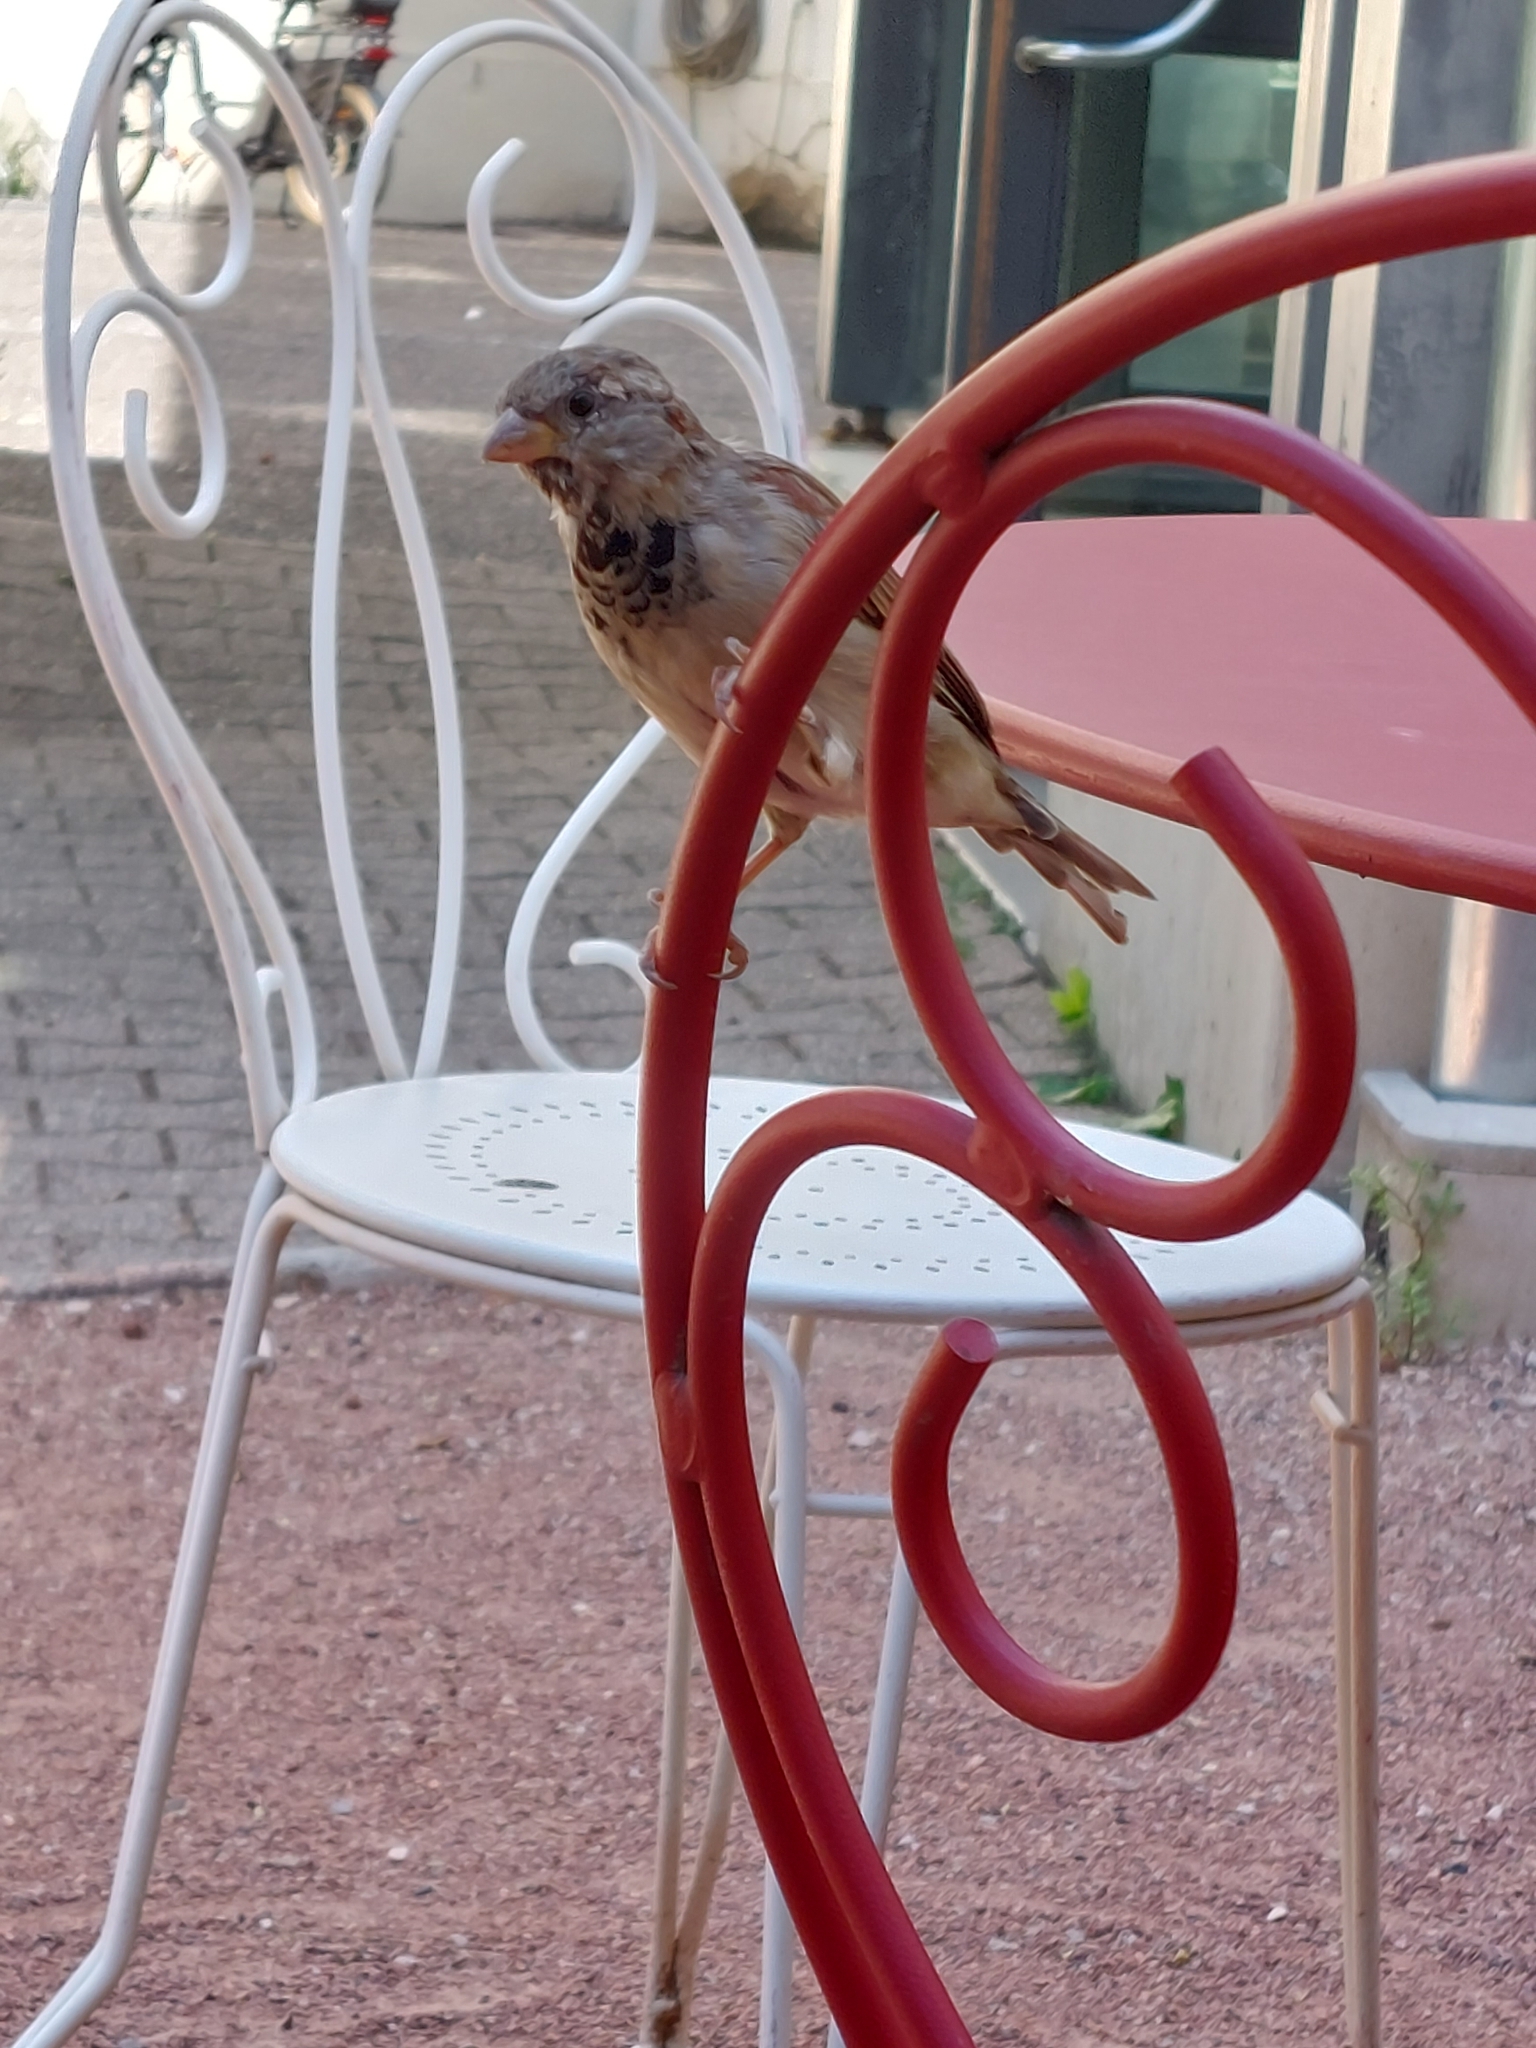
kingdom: Animalia
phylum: Chordata
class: Aves
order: Passeriformes
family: Passeridae
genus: Passer
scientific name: Passer domesticus
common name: House sparrow
